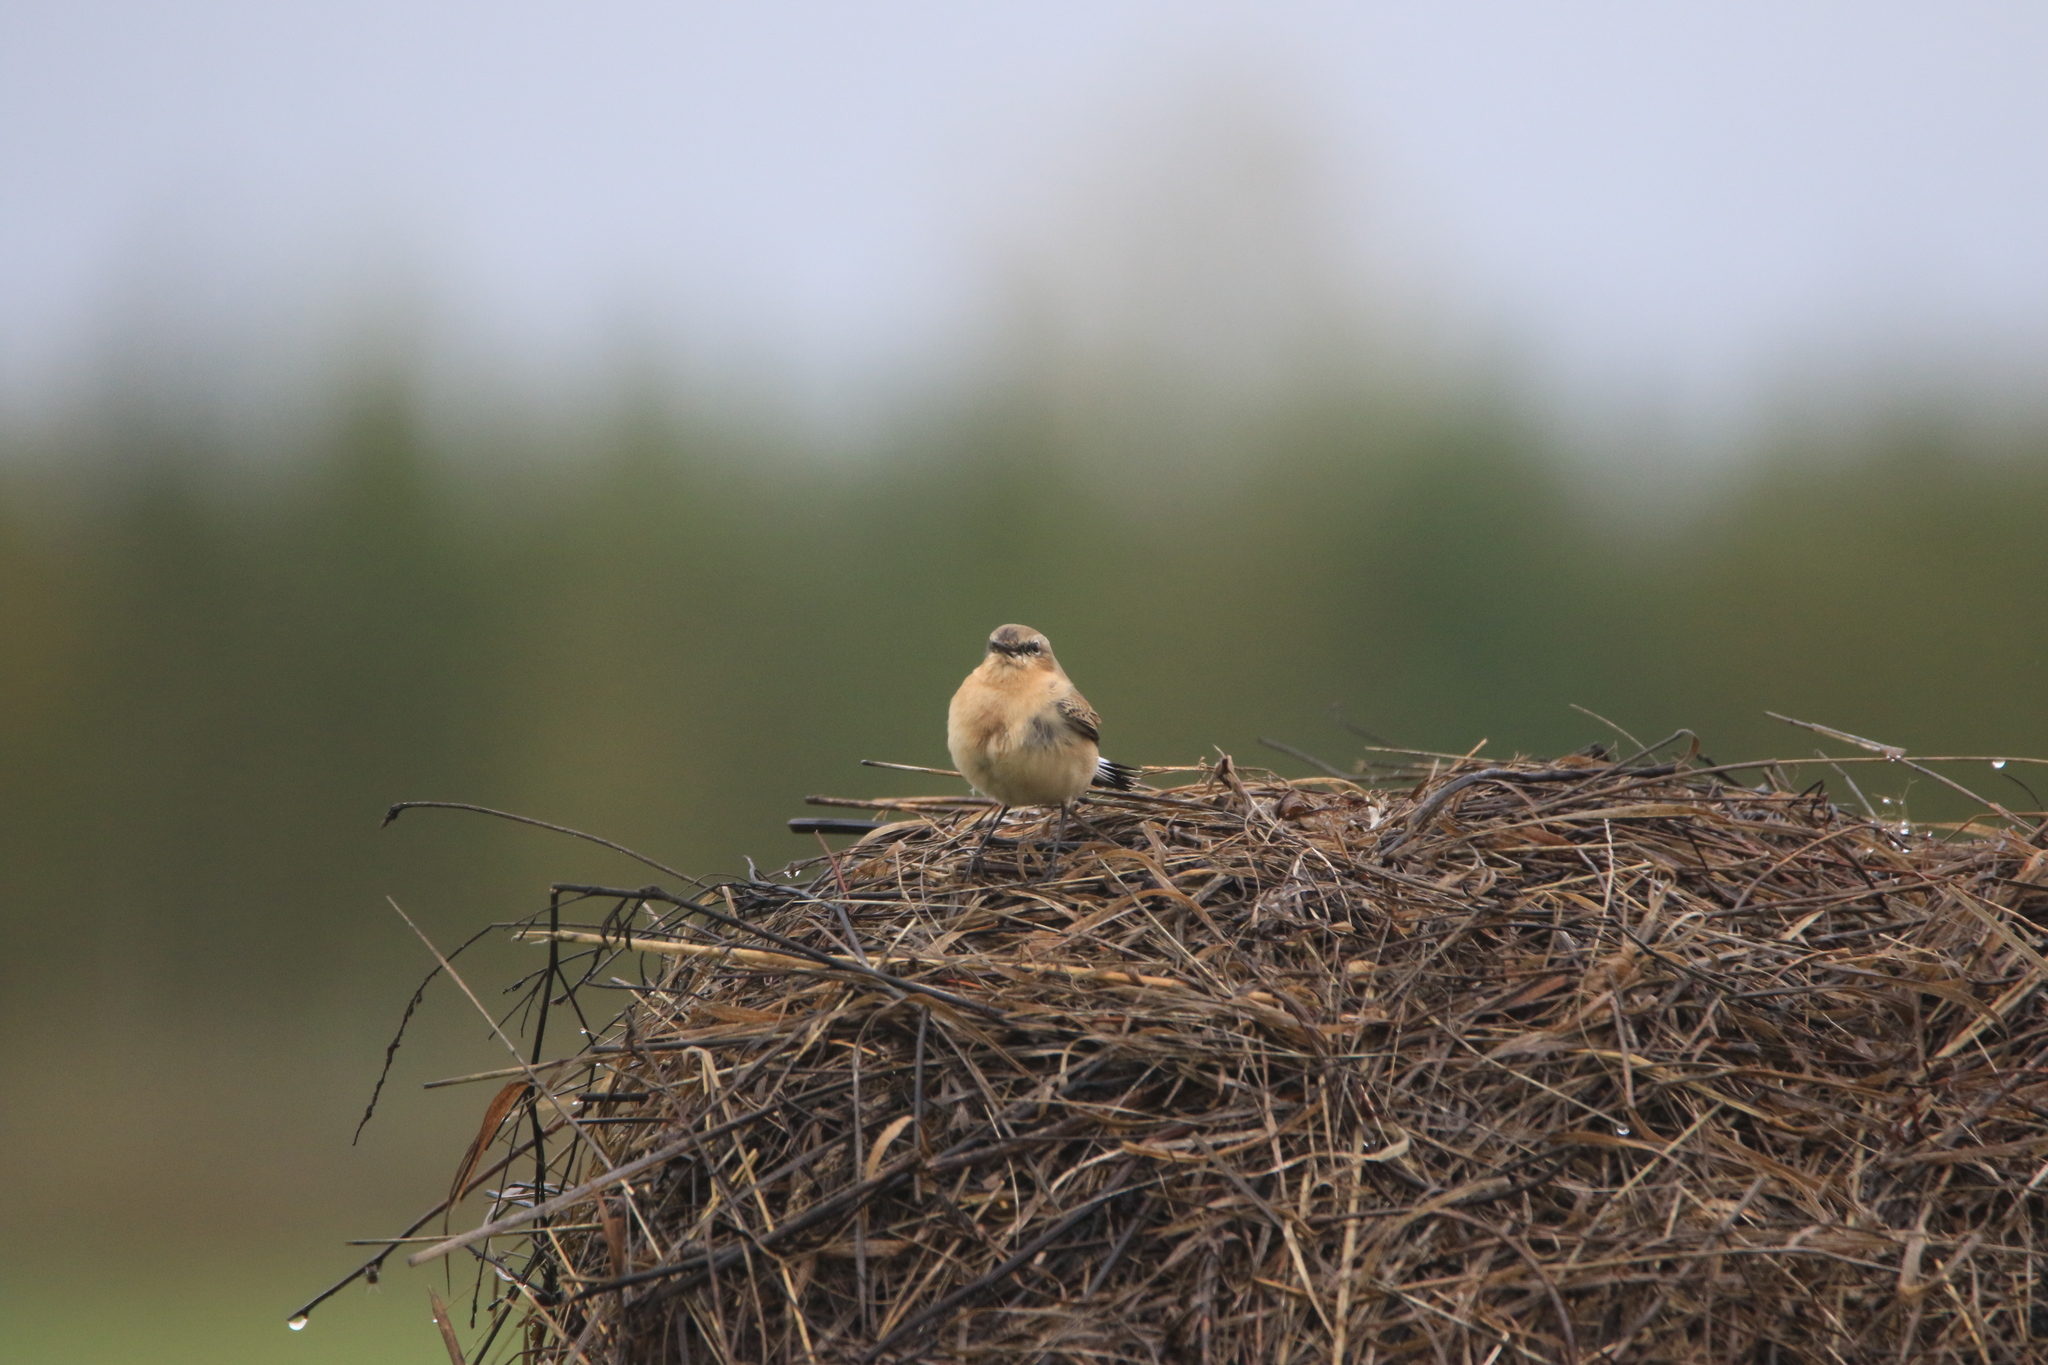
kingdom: Animalia
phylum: Chordata
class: Aves
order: Passeriformes
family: Muscicapidae
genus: Oenanthe
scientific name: Oenanthe oenanthe
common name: Northern wheatear
